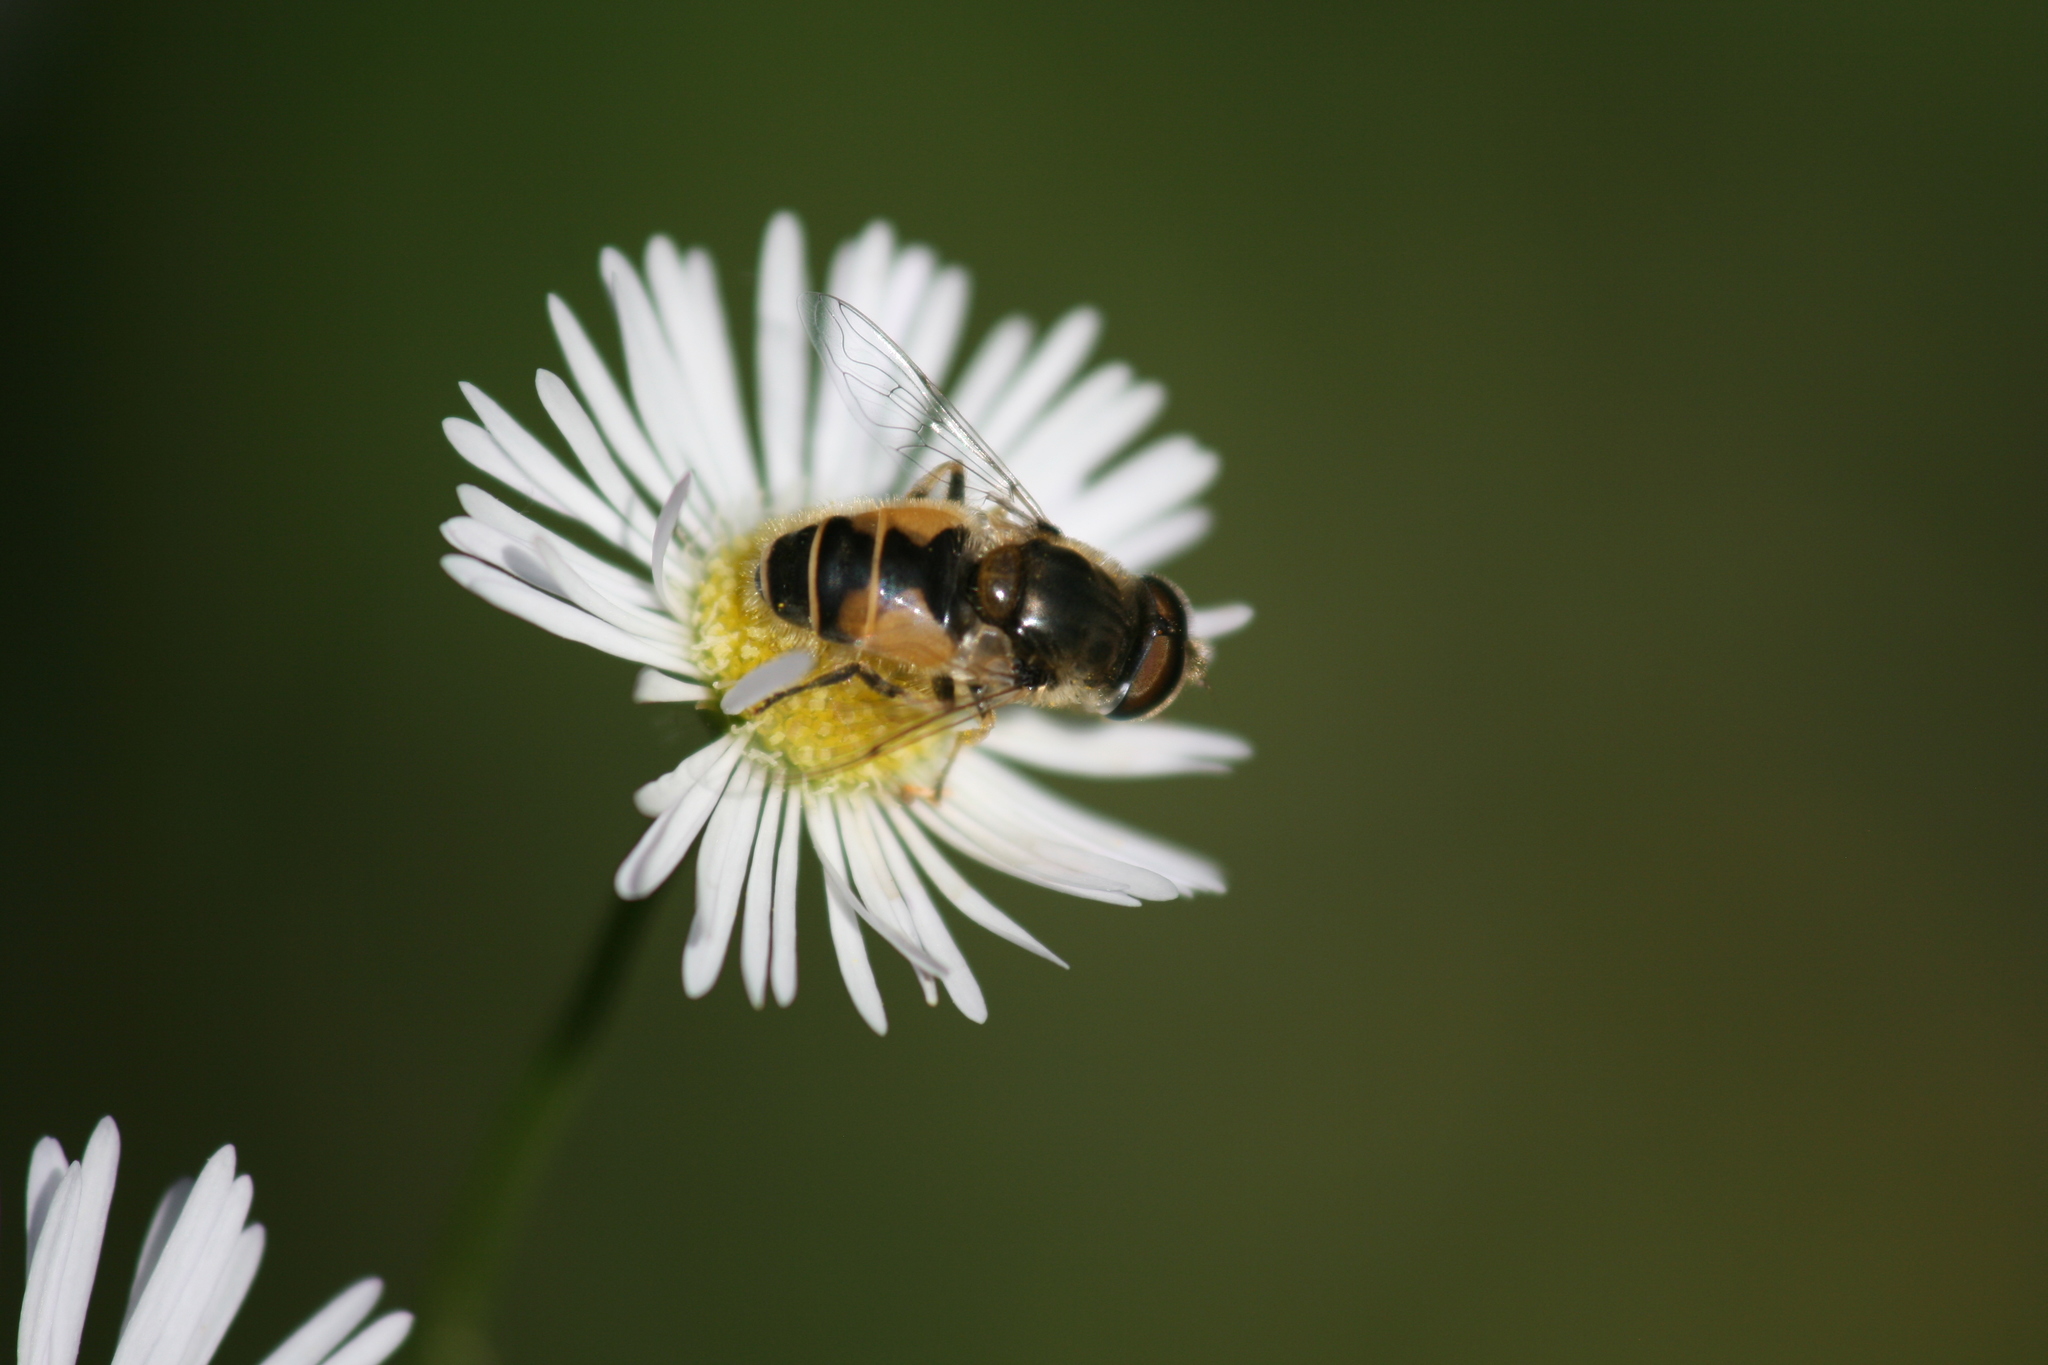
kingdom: Animalia
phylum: Arthropoda
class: Insecta
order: Diptera
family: Syrphidae
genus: Eristalis
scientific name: Eristalis arbustorum
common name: Hover fly
